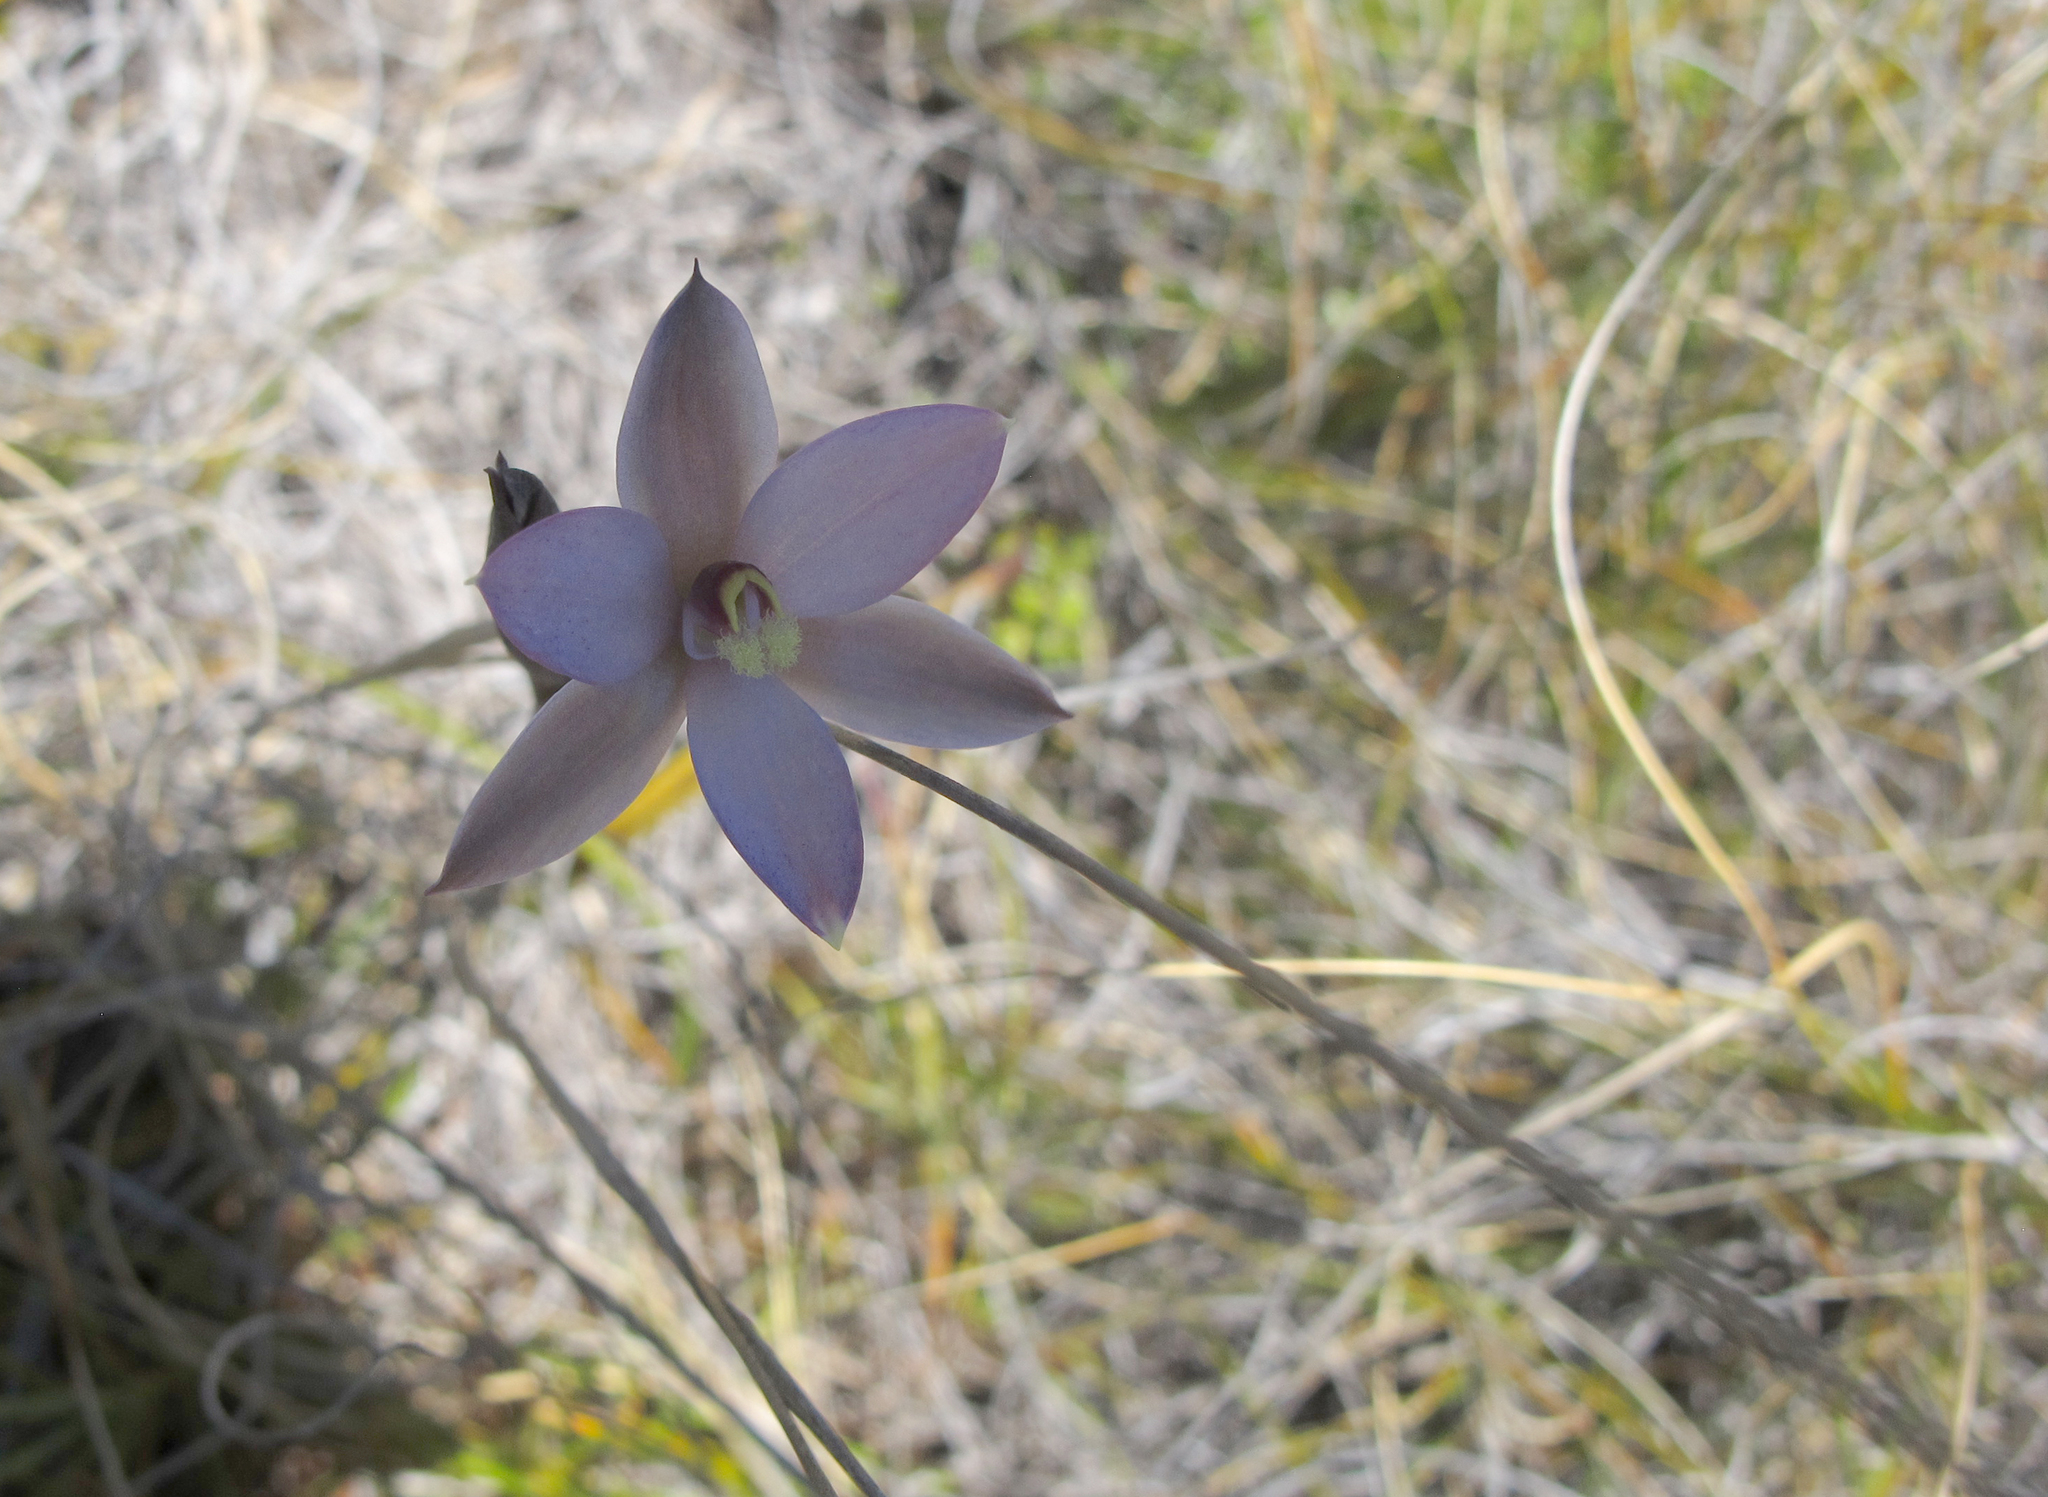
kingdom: Plantae
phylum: Tracheophyta
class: Liliopsida
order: Asparagales
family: Orchidaceae
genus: Thelymitra
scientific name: Thelymitra hatchii
